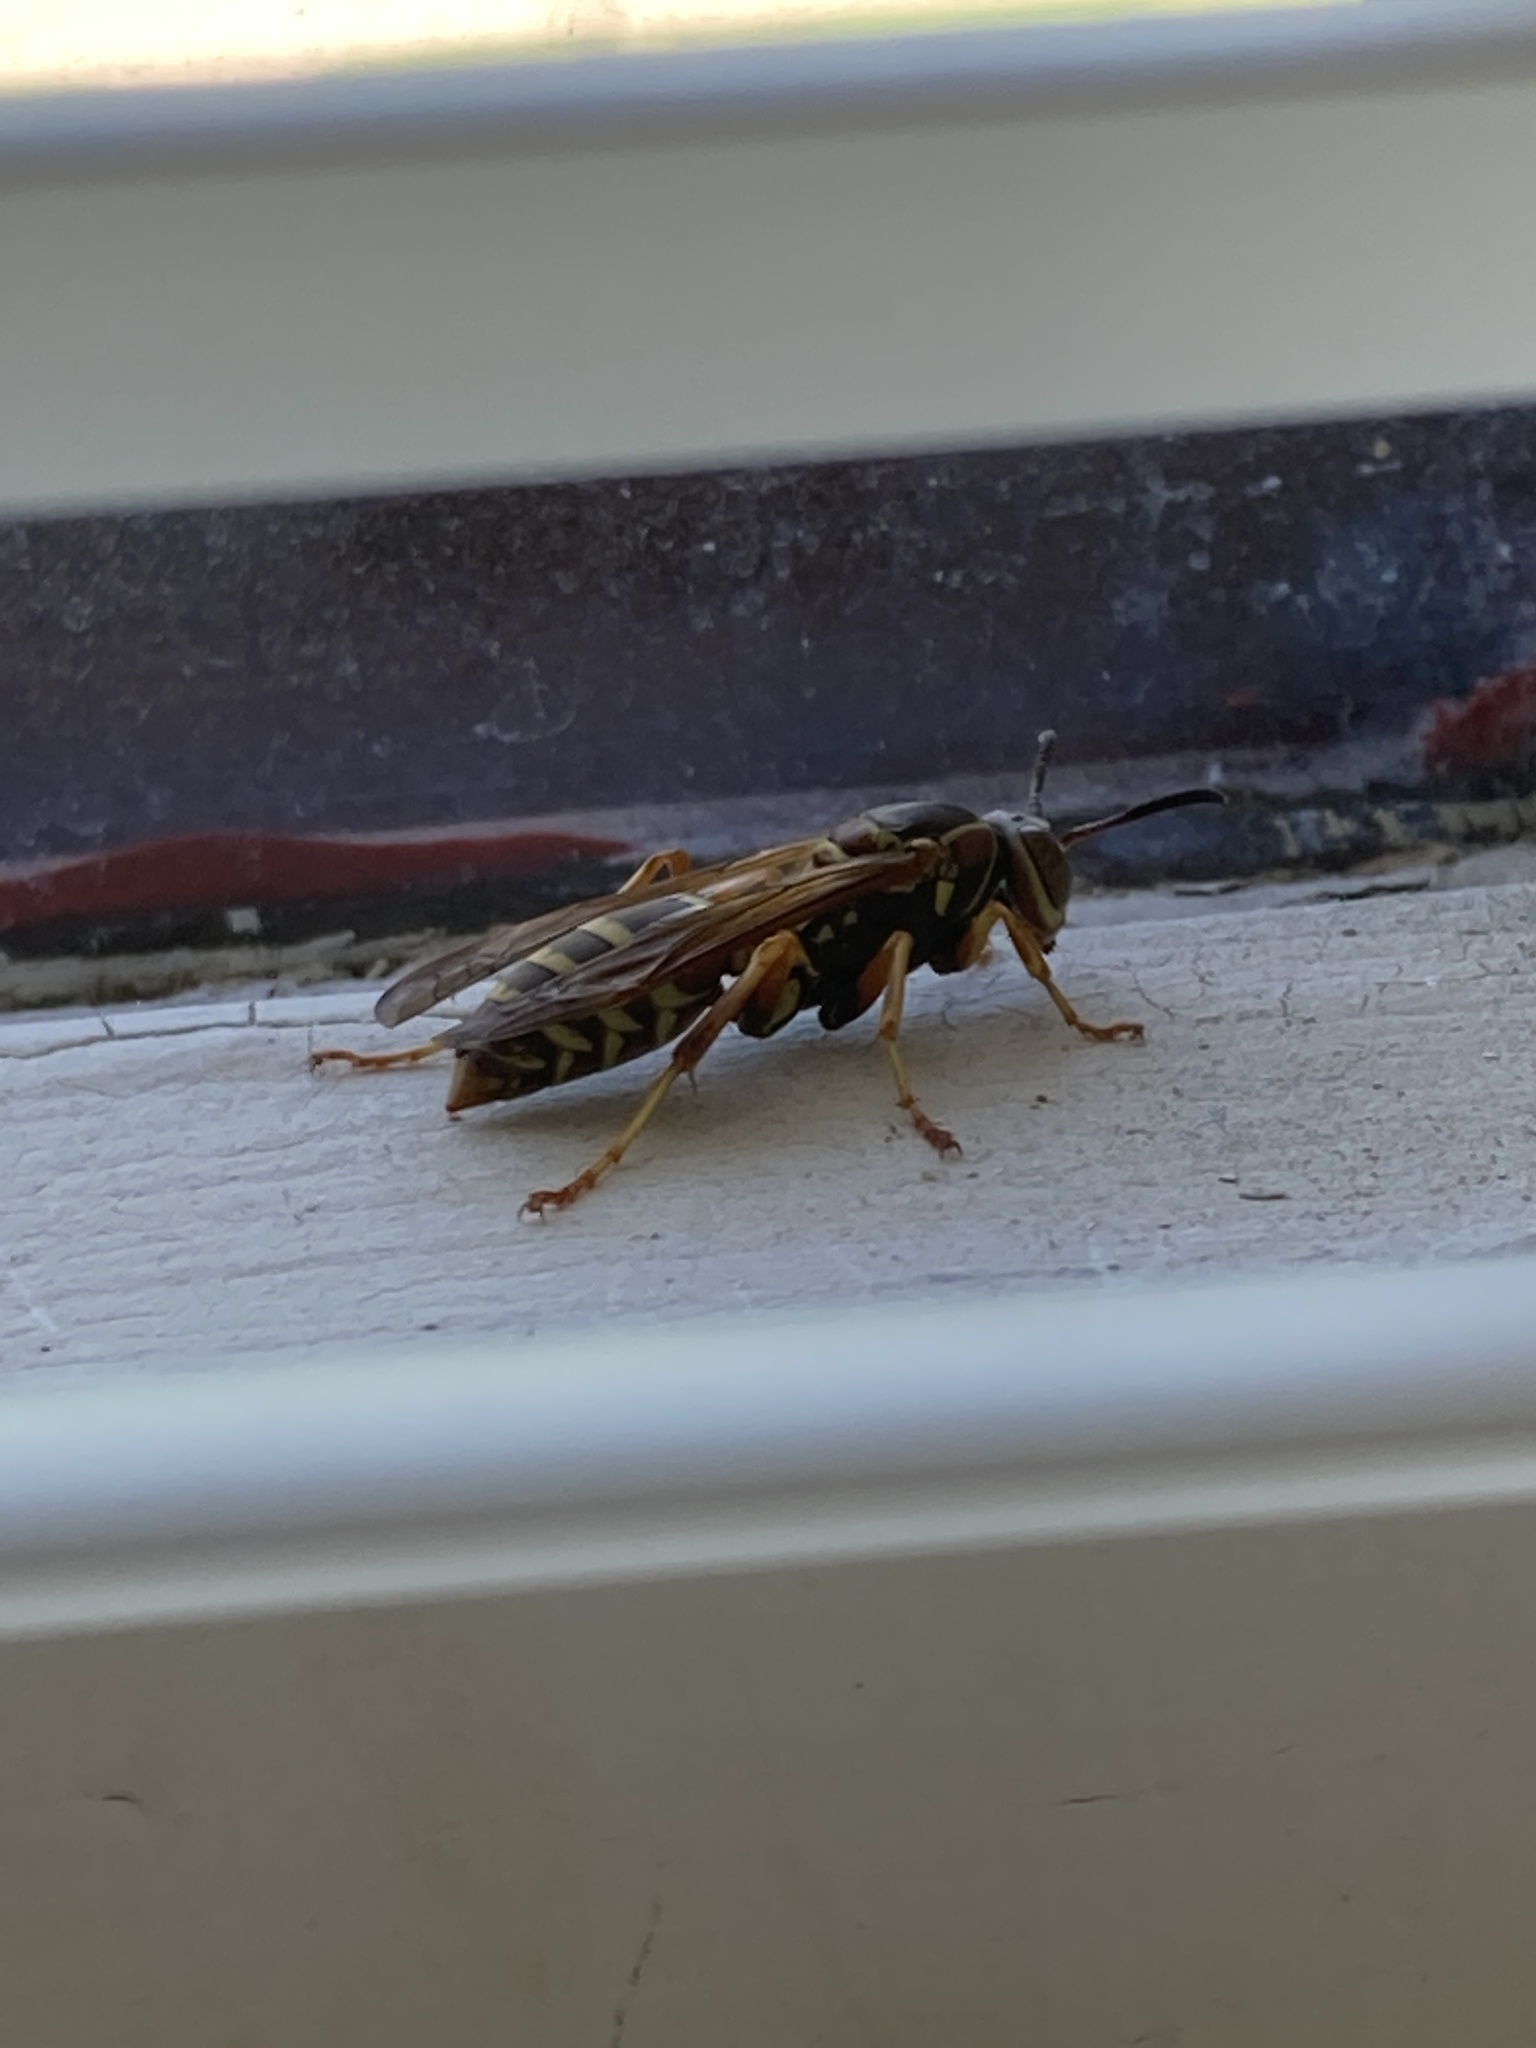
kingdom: Animalia
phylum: Arthropoda
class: Insecta
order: Hymenoptera
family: Eumenidae
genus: Polistes
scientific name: Polistes fuscatus
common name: Dark paper wasp
